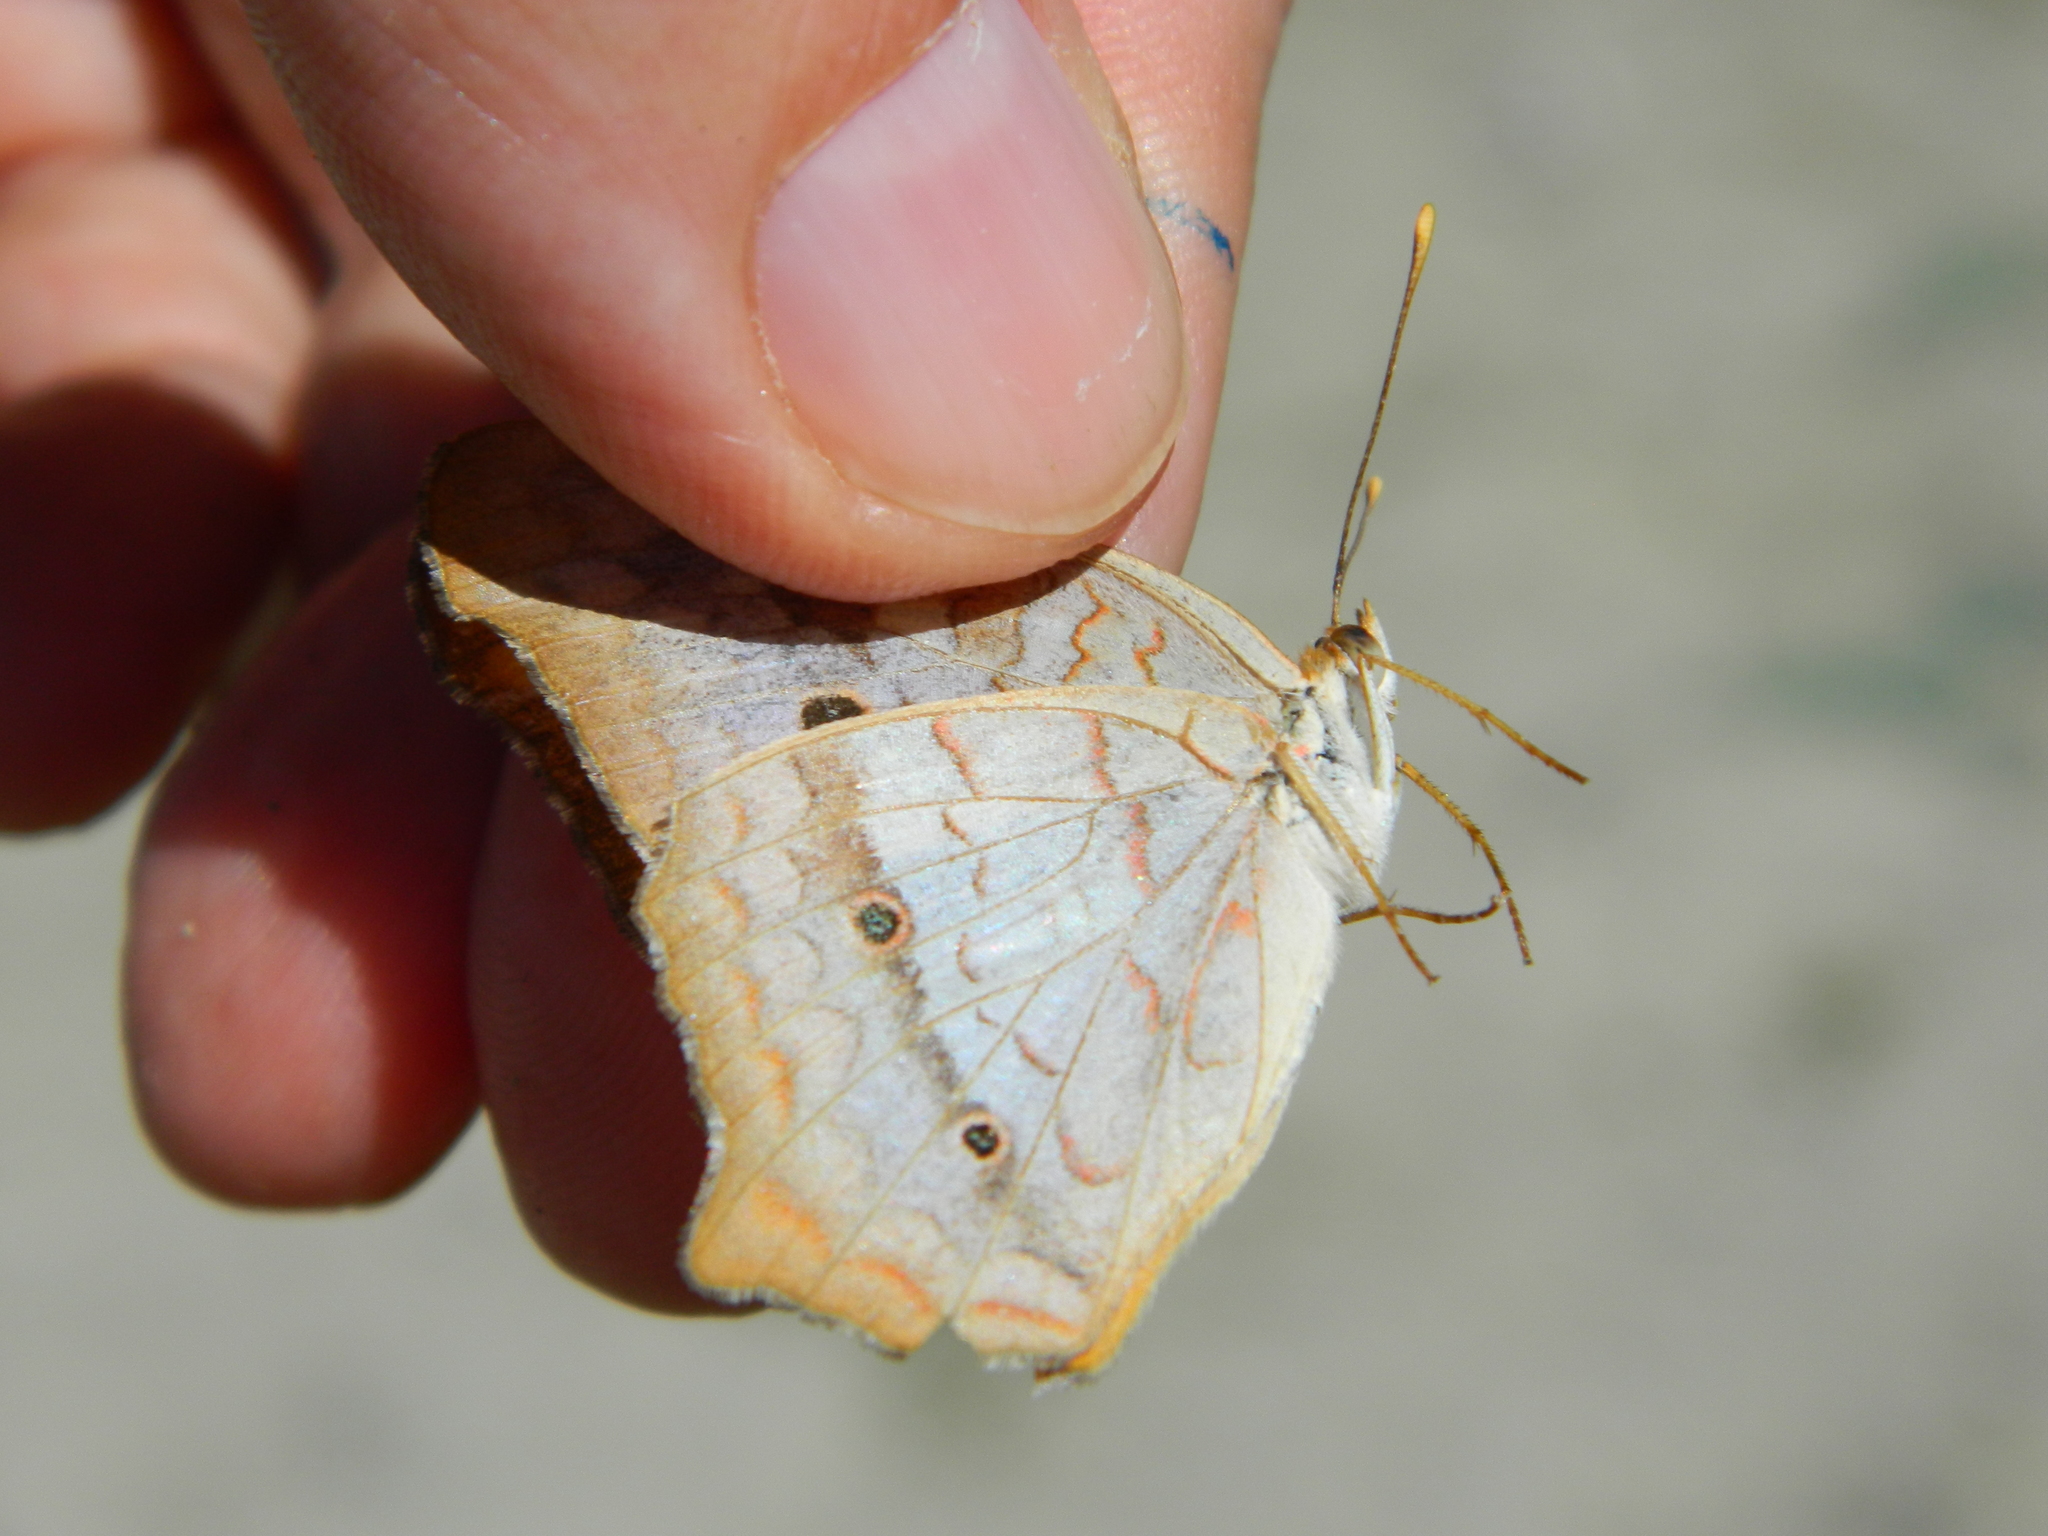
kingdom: Animalia
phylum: Arthropoda
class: Insecta
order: Lepidoptera
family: Nymphalidae
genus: Anartia
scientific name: Anartia jatrophae
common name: White peacock
